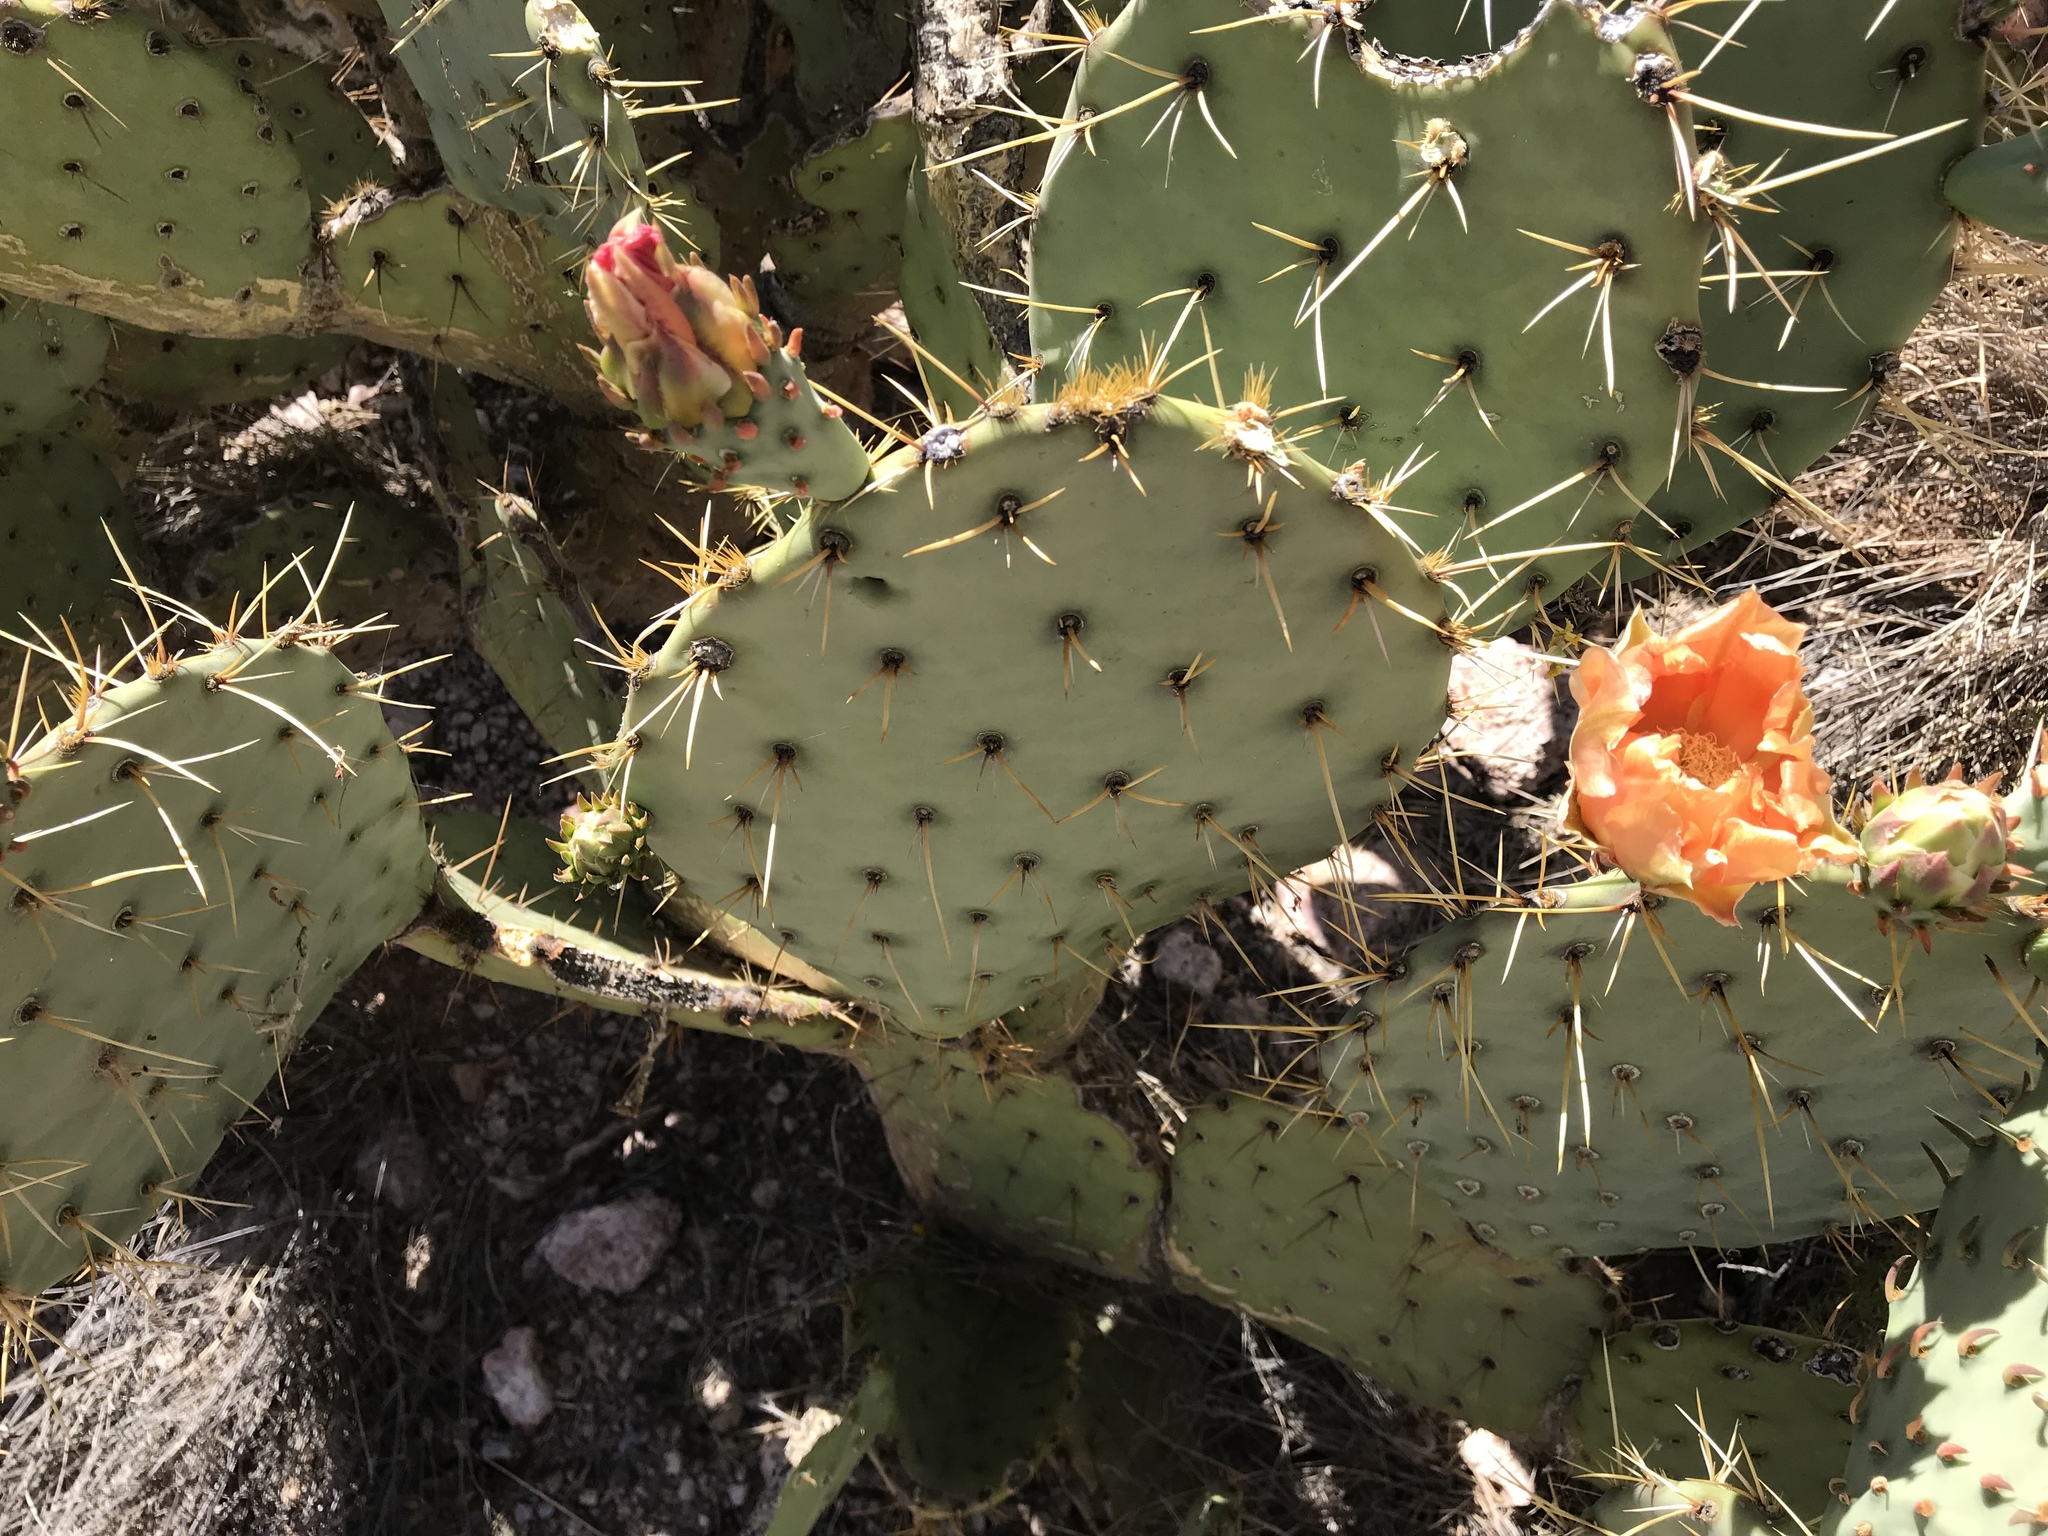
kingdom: Plantae
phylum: Tracheophyta
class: Magnoliopsida
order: Caryophyllales
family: Cactaceae
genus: Opuntia
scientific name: Opuntia engelmannii
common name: Cactus-apple
